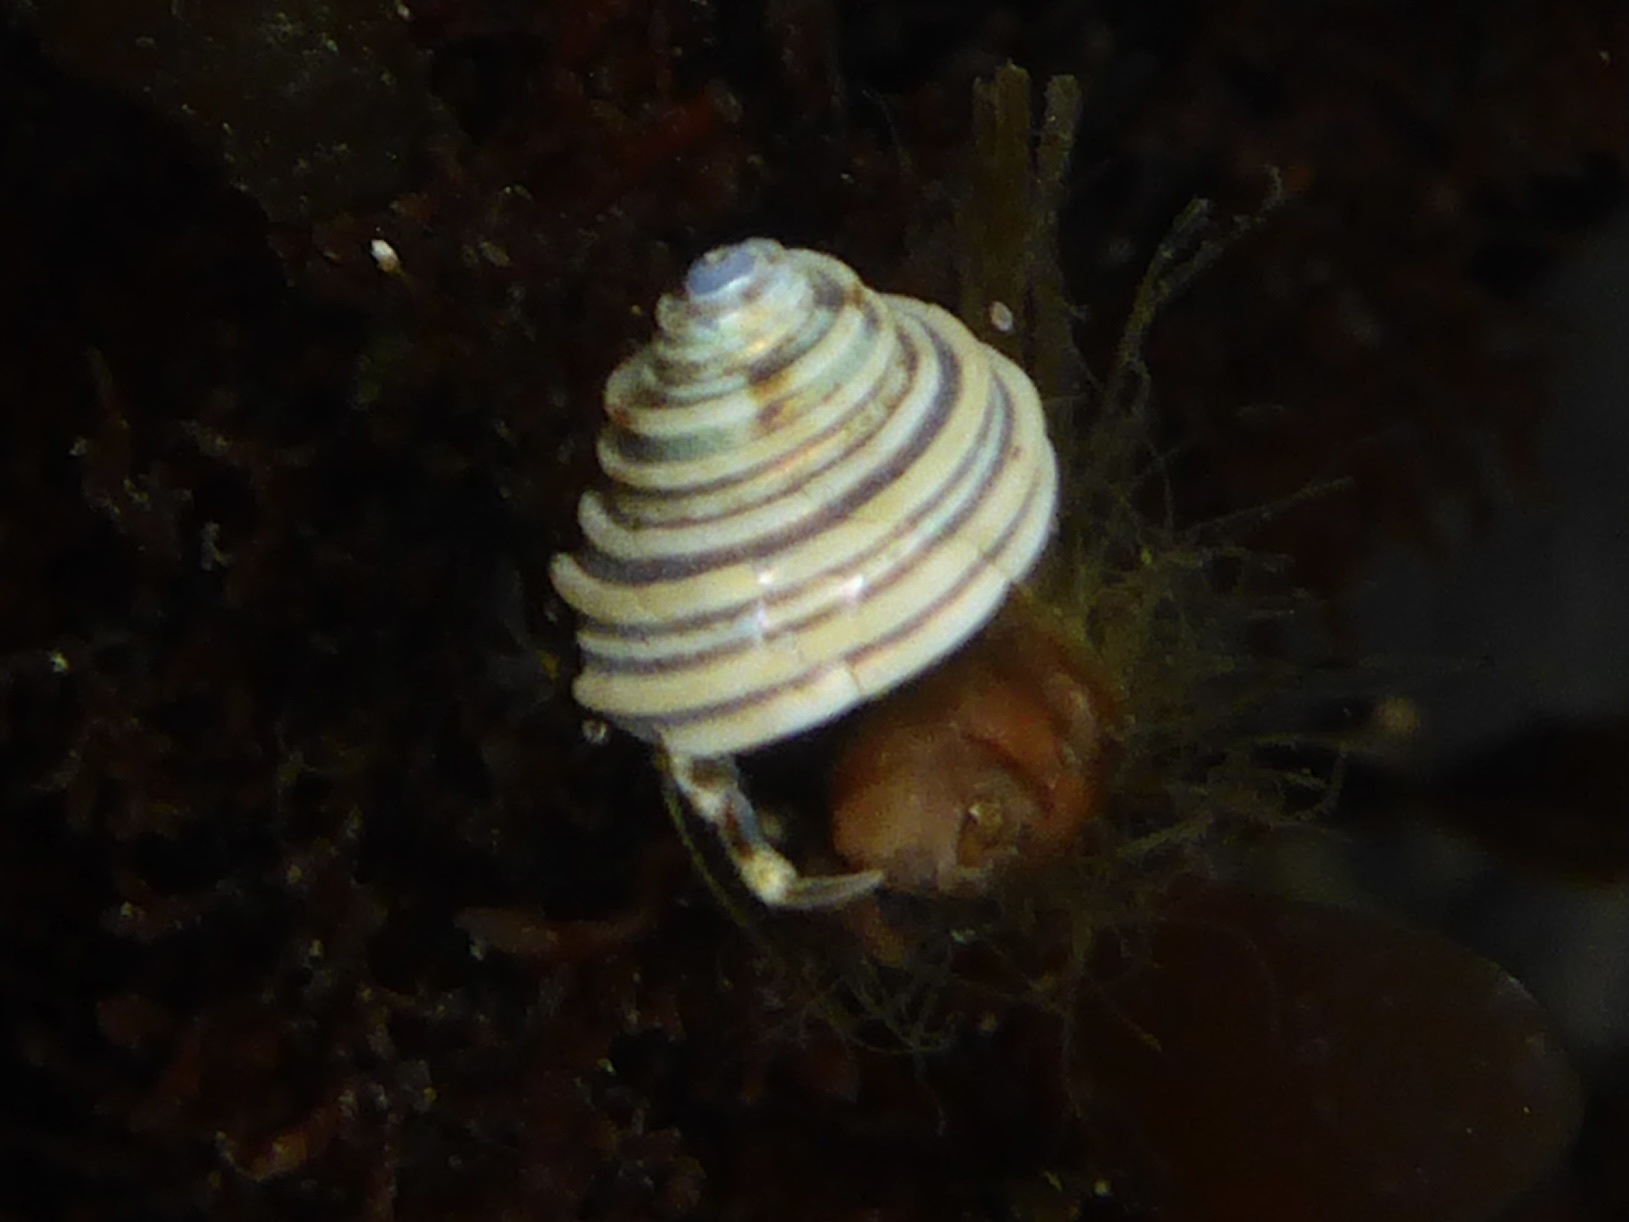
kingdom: Animalia
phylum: Mollusca
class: Gastropoda
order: Trochida
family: Calliostomatidae
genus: Calliostoma
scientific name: Calliostoma canaliculatum
